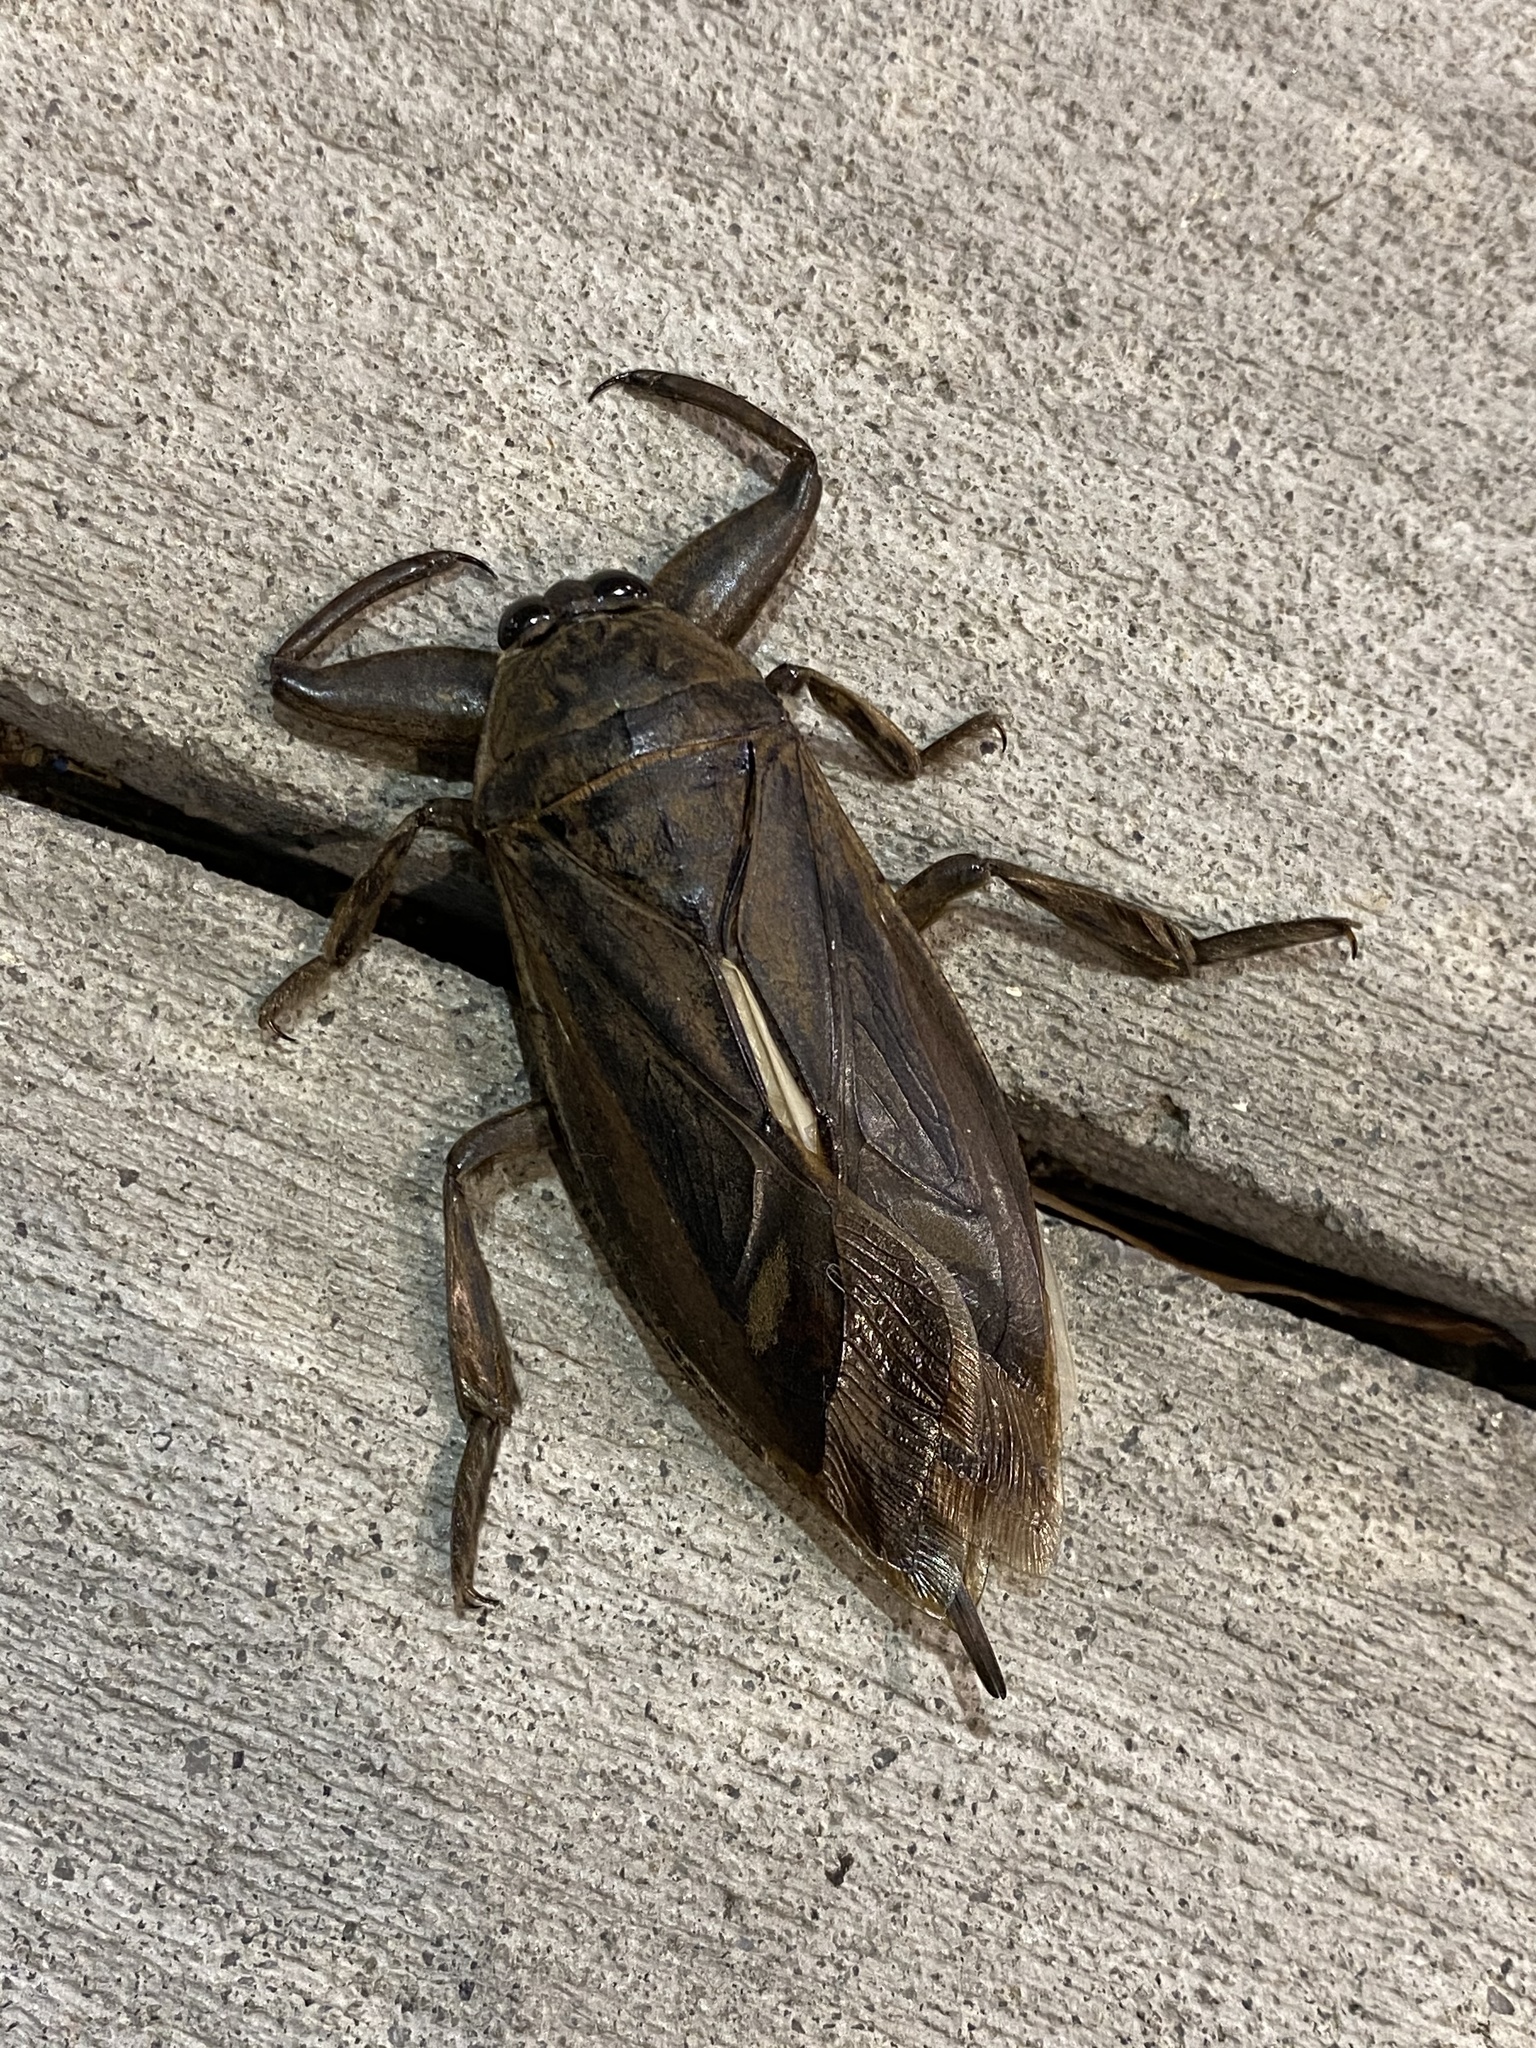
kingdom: Animalia
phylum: Arthropoda
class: Insecta
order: Hemiptera
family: Belostomatidae
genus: Lethocerus
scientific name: Lethocerus uhleri
